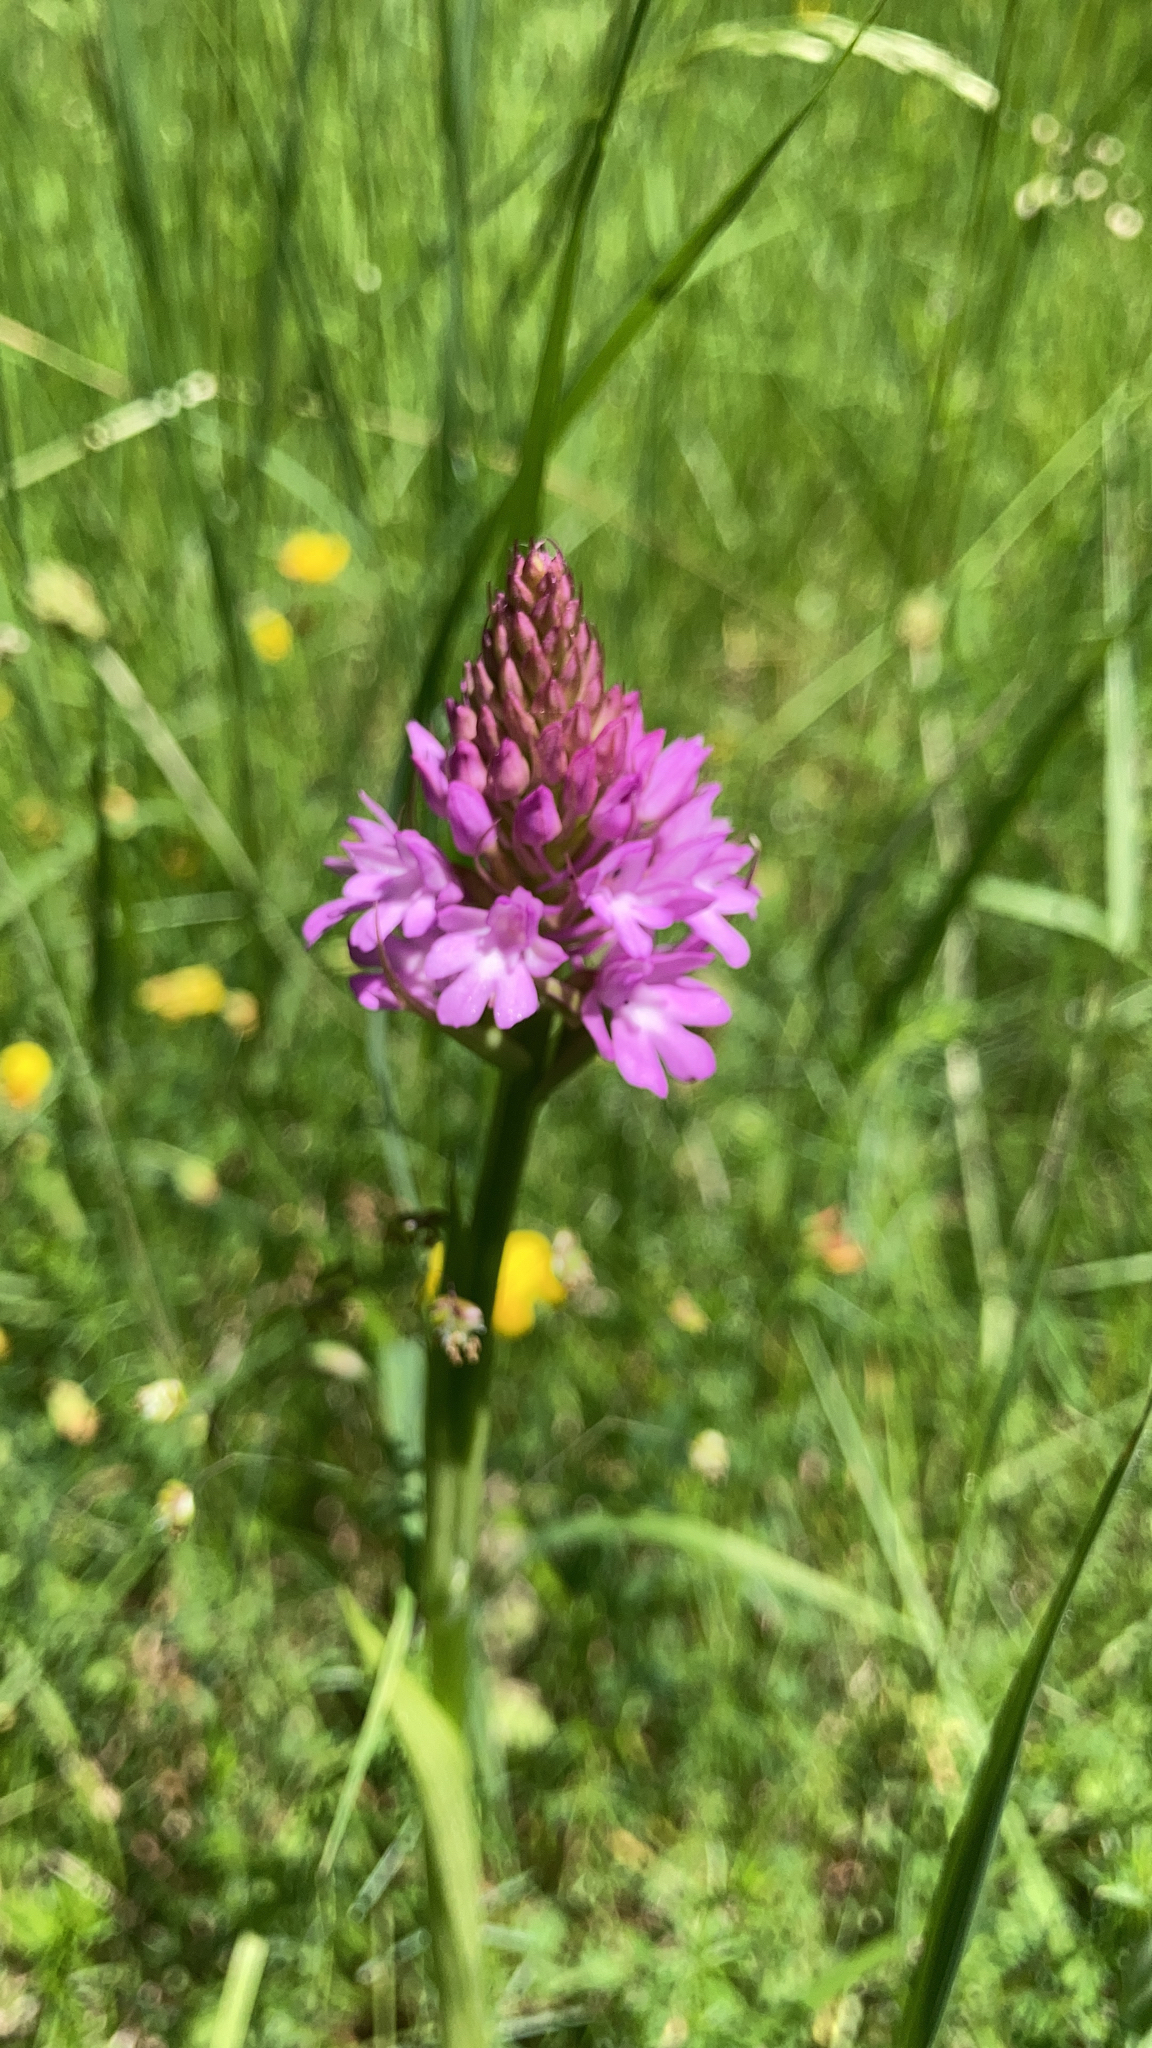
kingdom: Plantae
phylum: Tracheophyta
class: Liliopsida
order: Asparagales
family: Orchidaceae
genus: Anacamptis
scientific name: Anacamptis pyramidalis
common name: Pyramidal orchid
